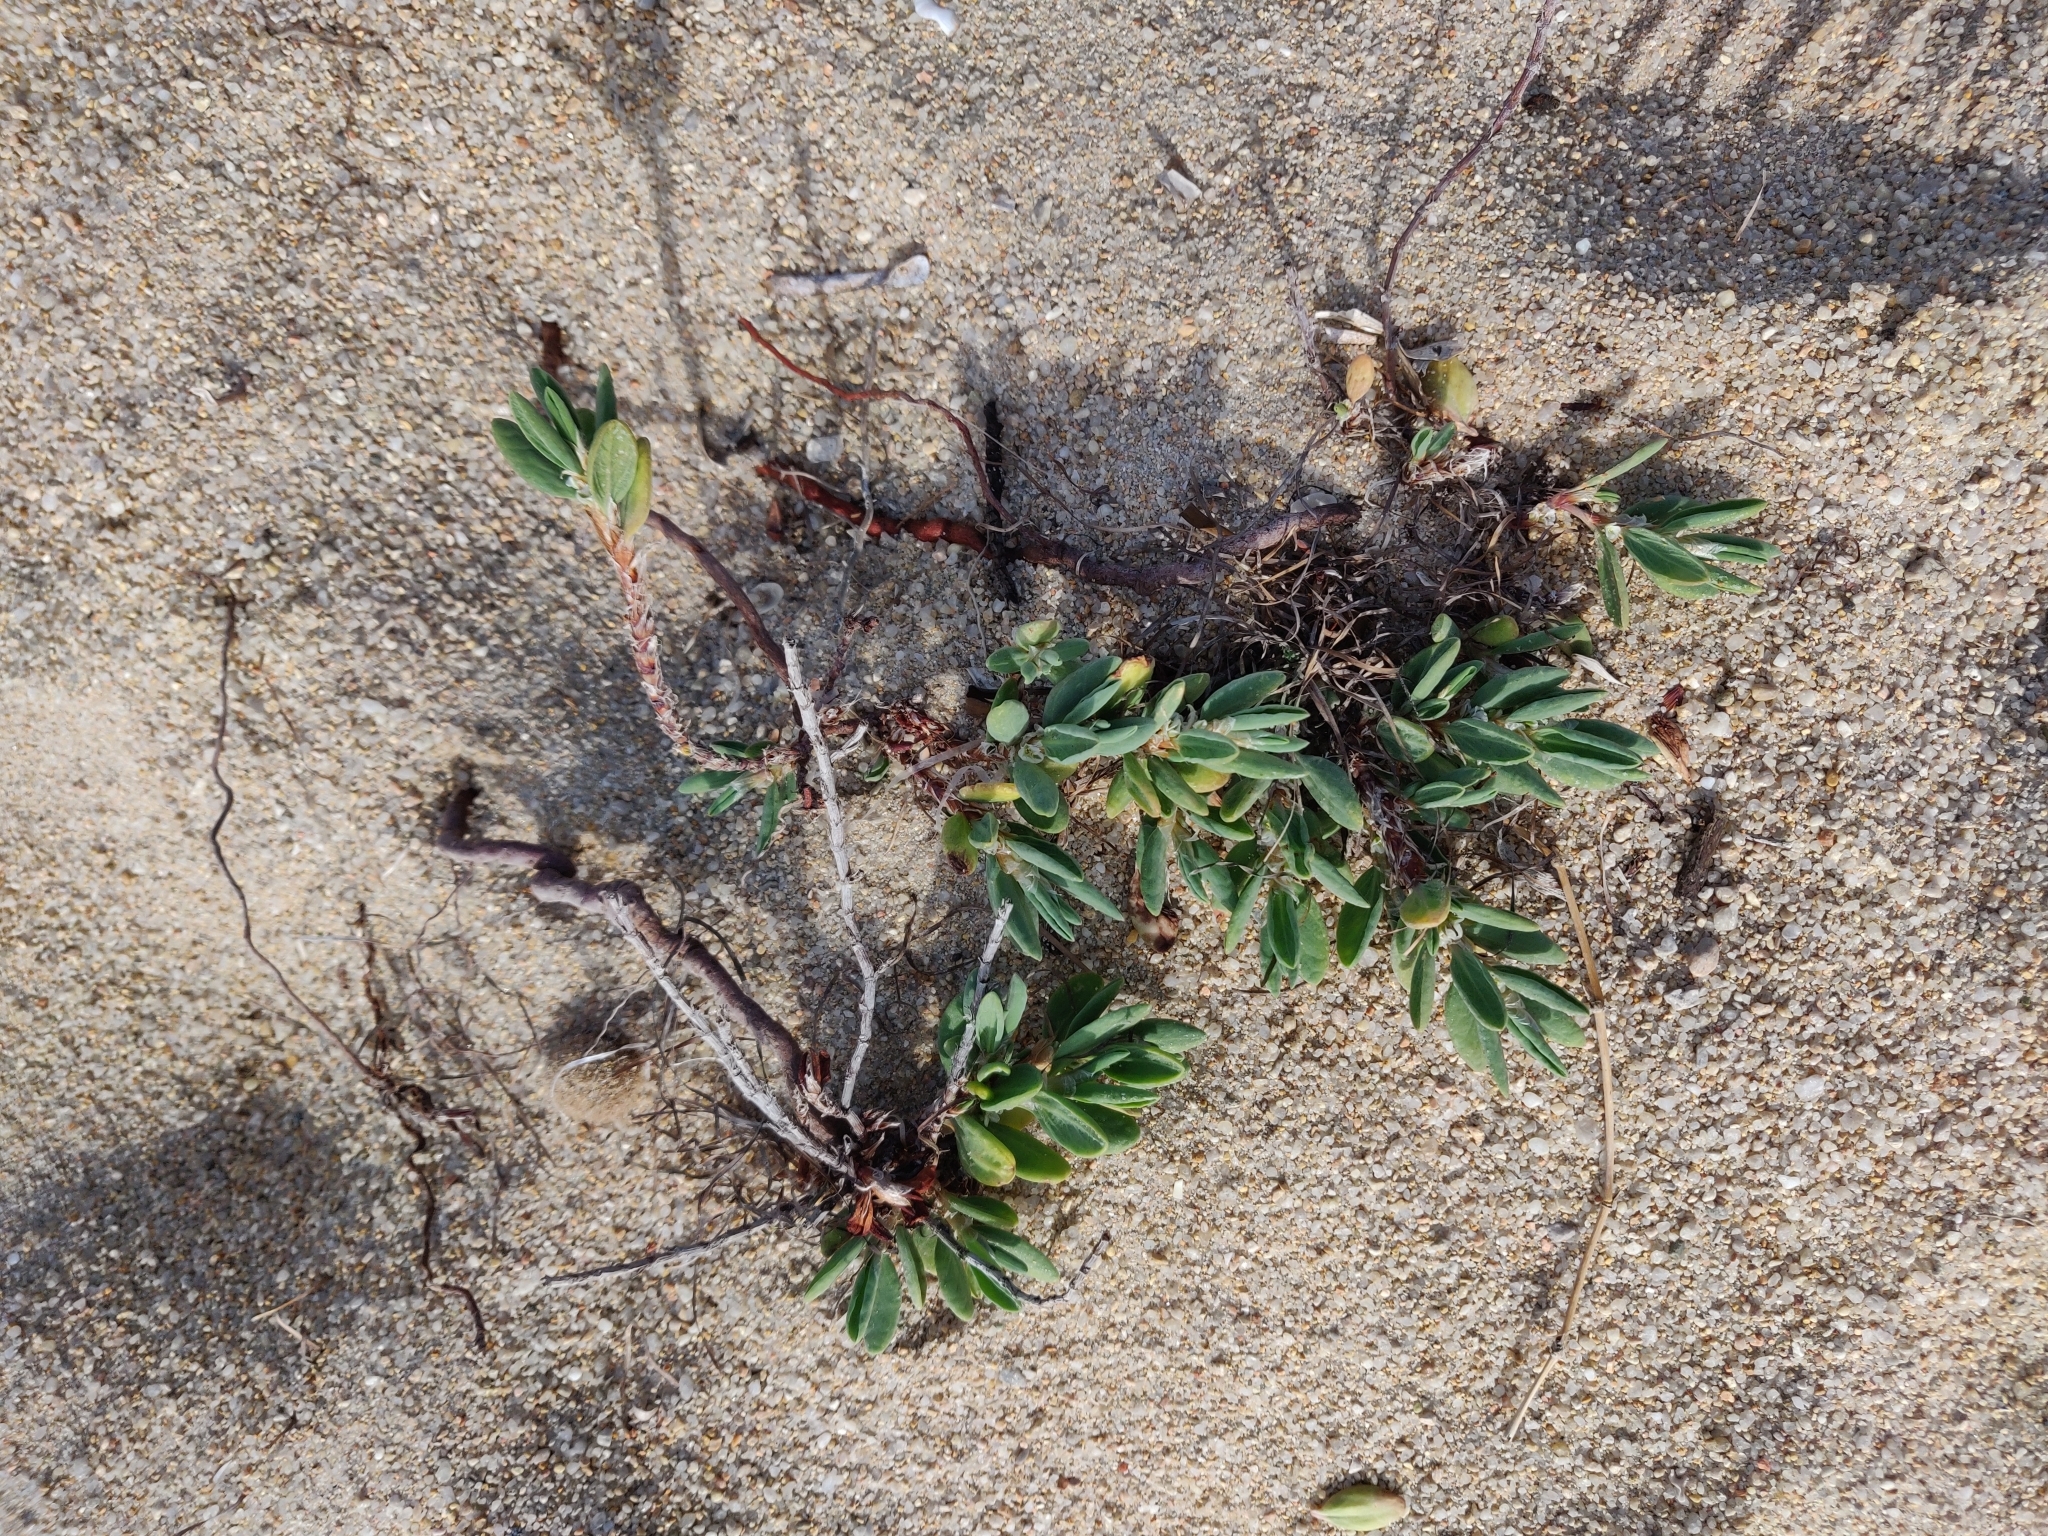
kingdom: Plantae
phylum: Tracheophyta
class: Magnoliopsida
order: Caryophyllales
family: Polygonaceae
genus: Polygonum
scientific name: Polygonum maritimum
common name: Sea knotgrass
